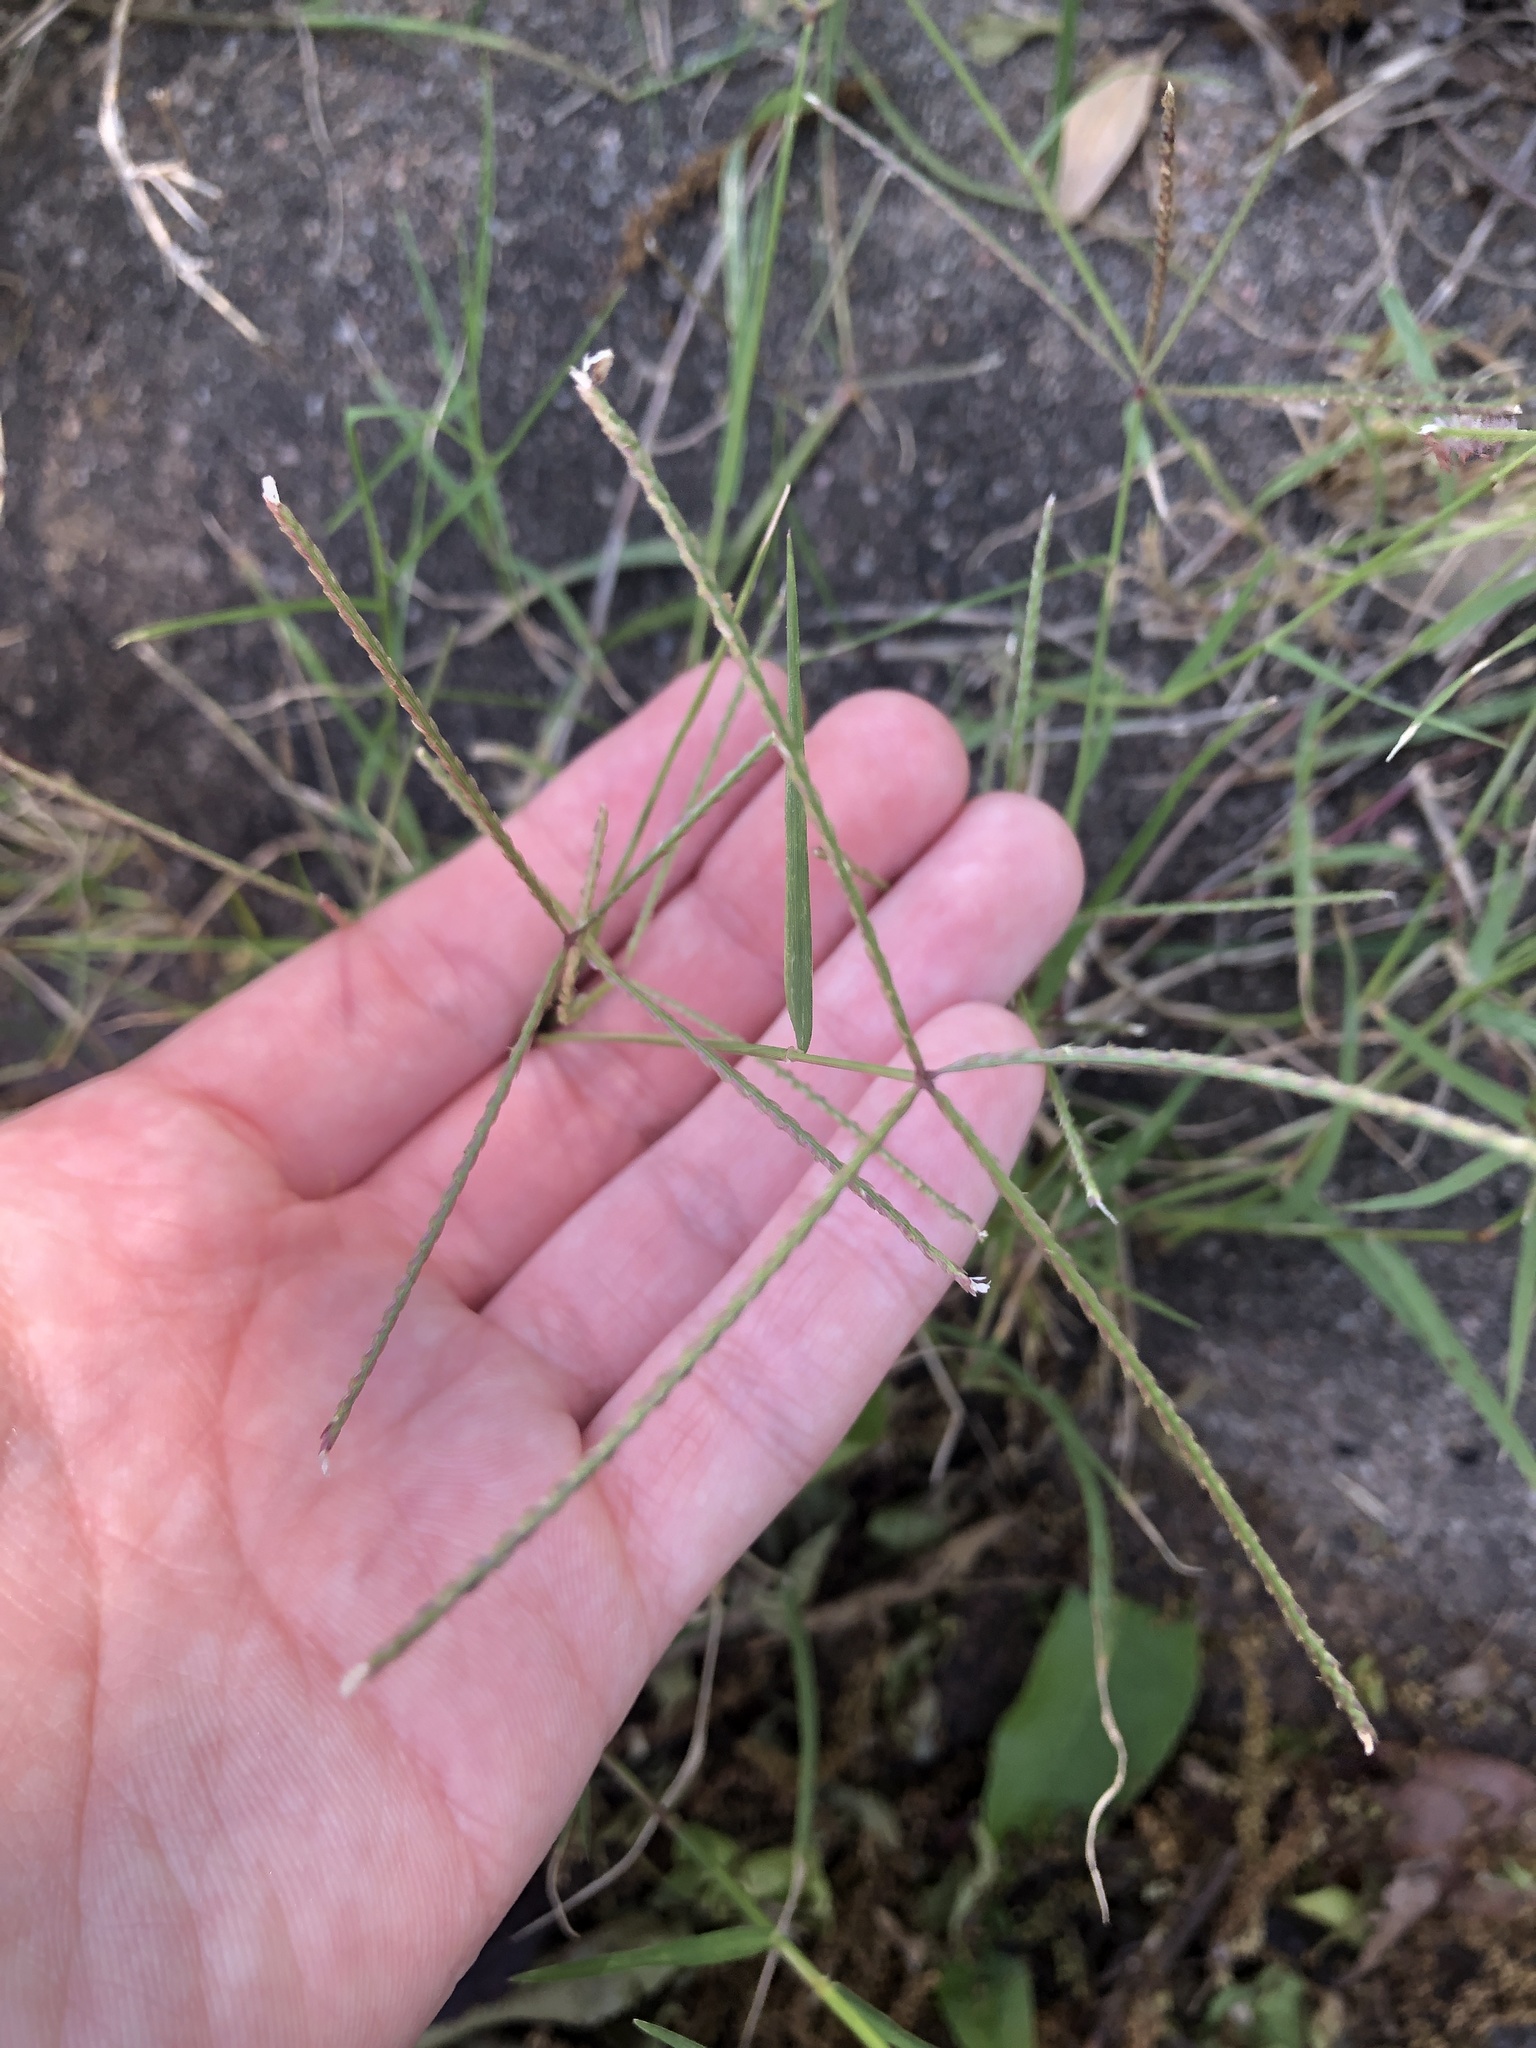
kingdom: Plantae
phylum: Tracheophyta
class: Liliopsida
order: Poales
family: Poaceae
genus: Cynodon
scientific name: Cynodon dactylon
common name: Bermuda grass
